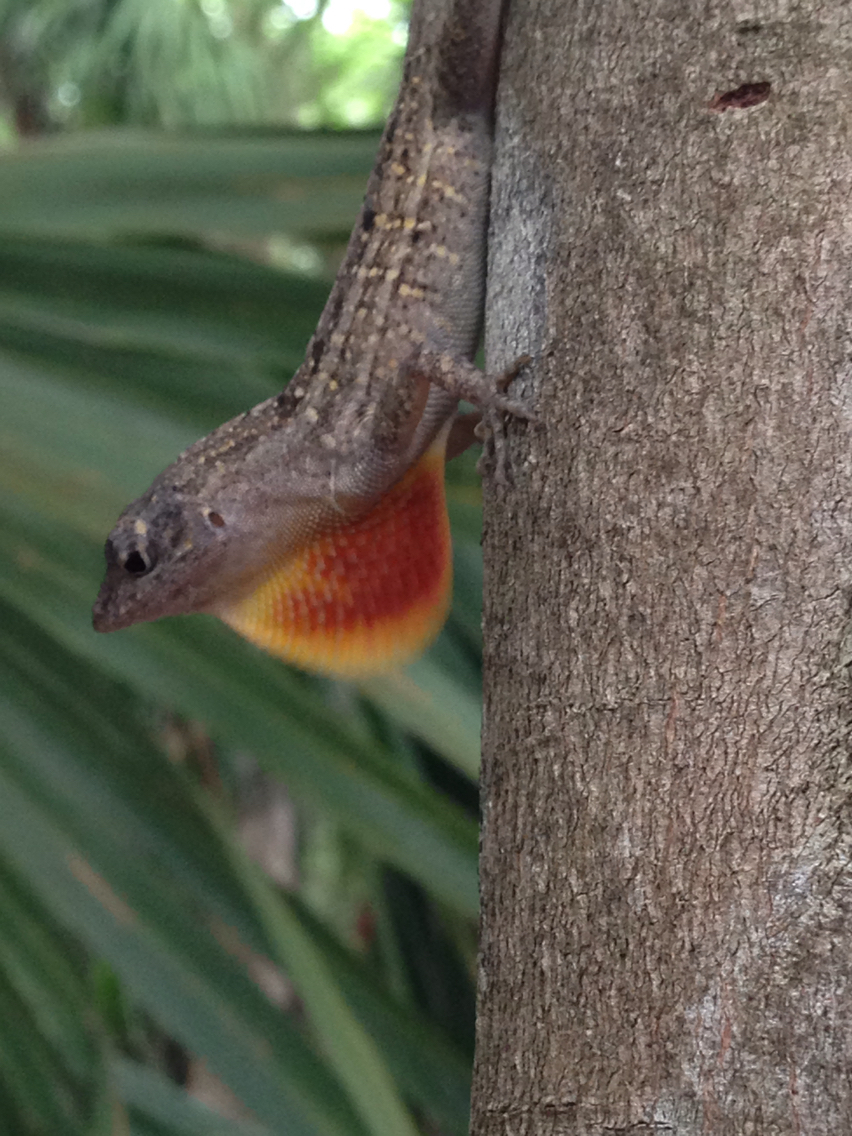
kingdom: Animalia
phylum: Chordata
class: Squamata
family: Dactyloidae
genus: Anolis
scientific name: Anolis sagrei
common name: Brown anole
